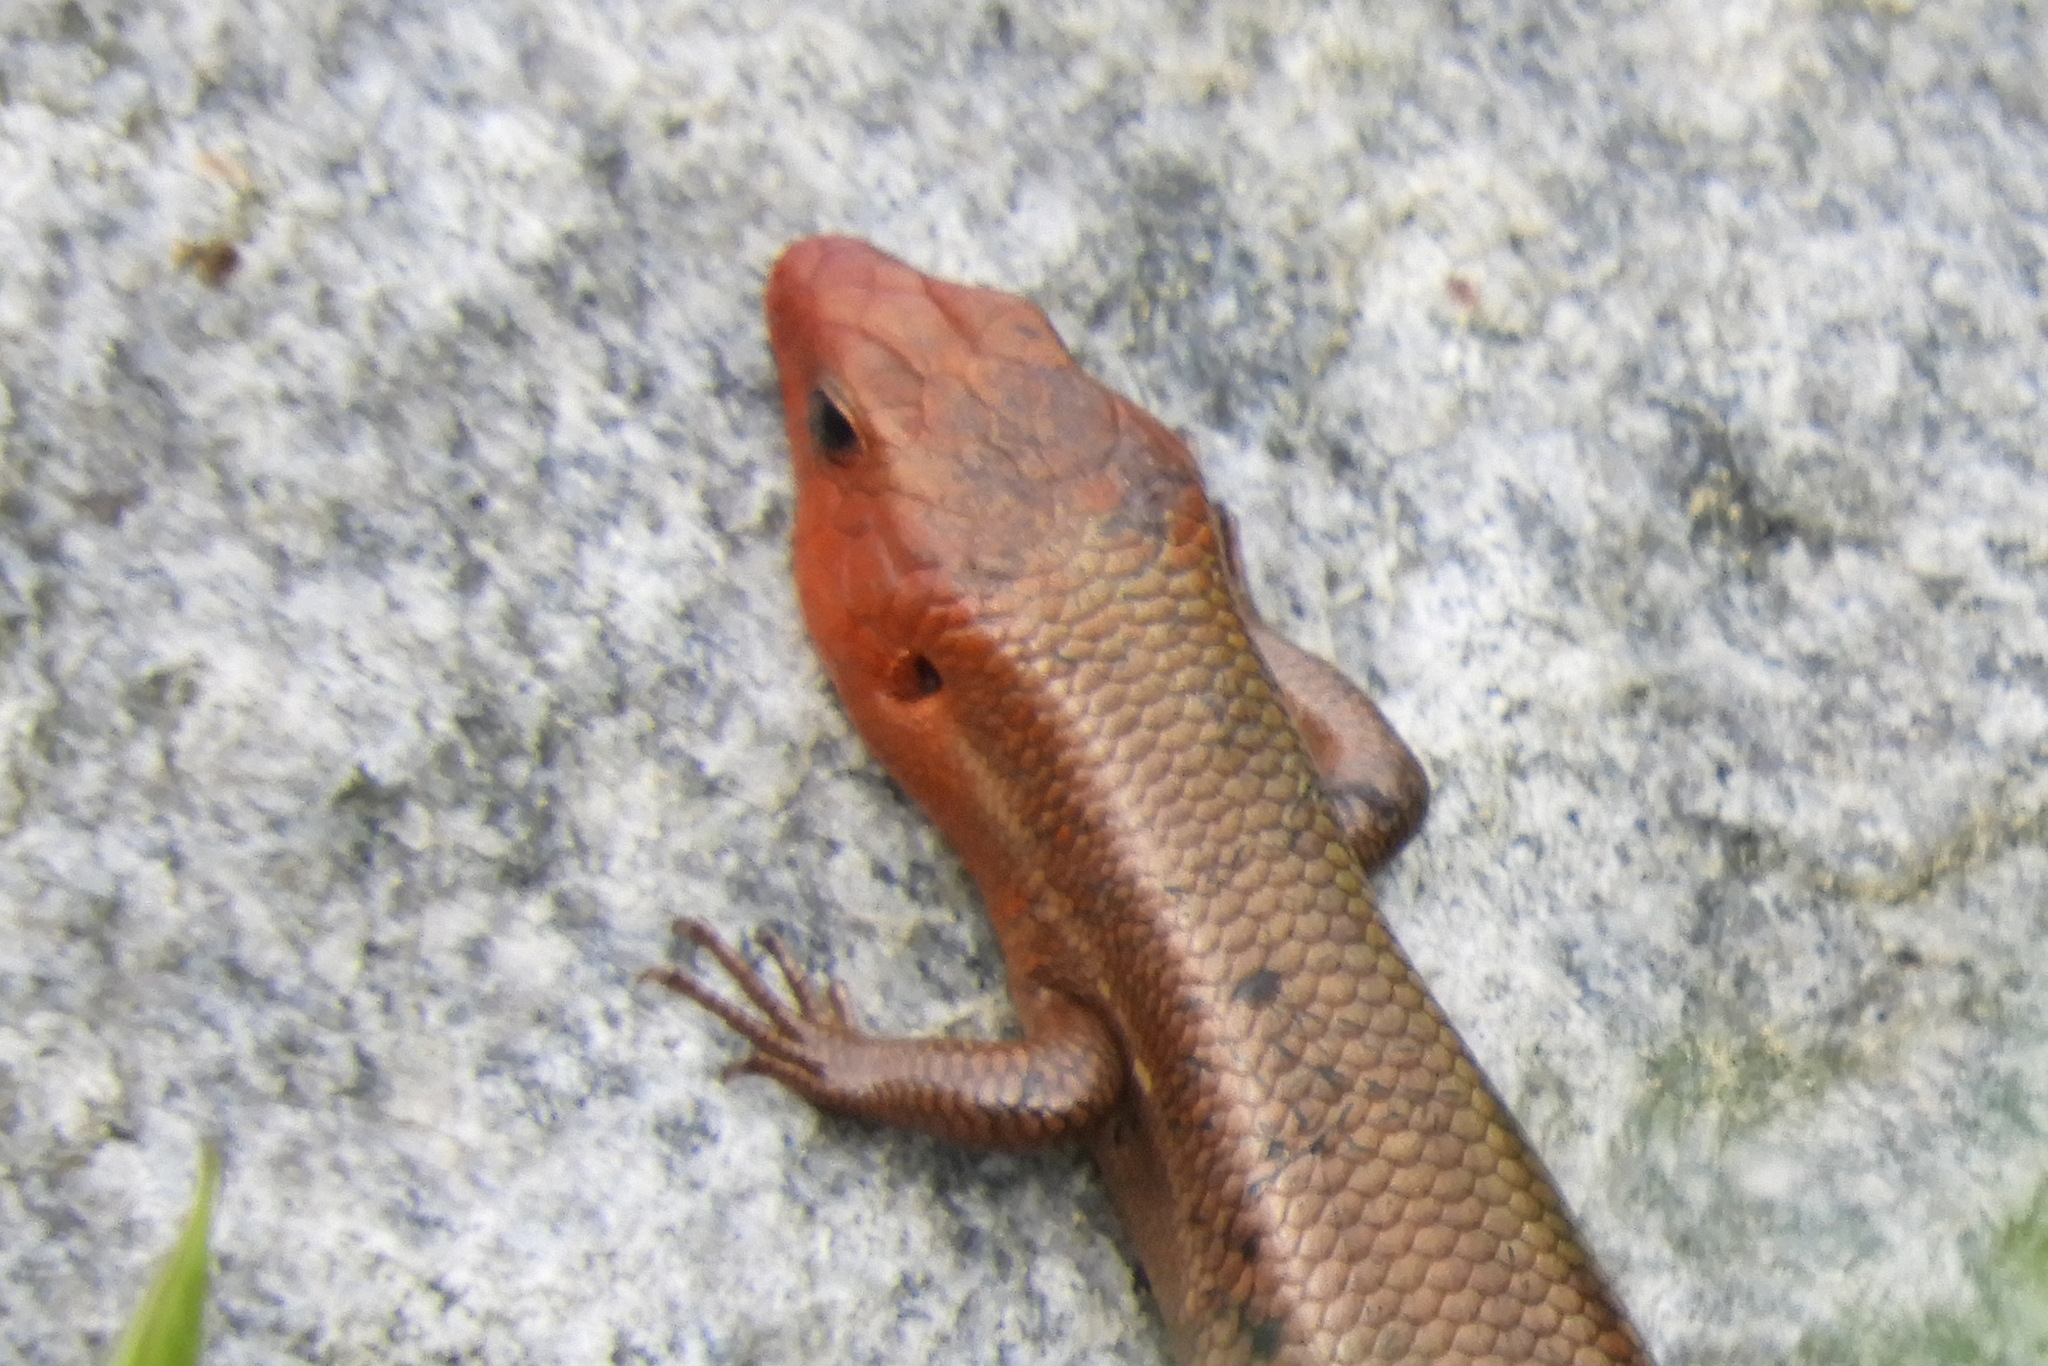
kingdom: Animalia
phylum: Chordata
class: Squamata
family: Scincidae
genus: Plestiodon
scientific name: Plestiodon fasciatus
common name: Five-lined skink
